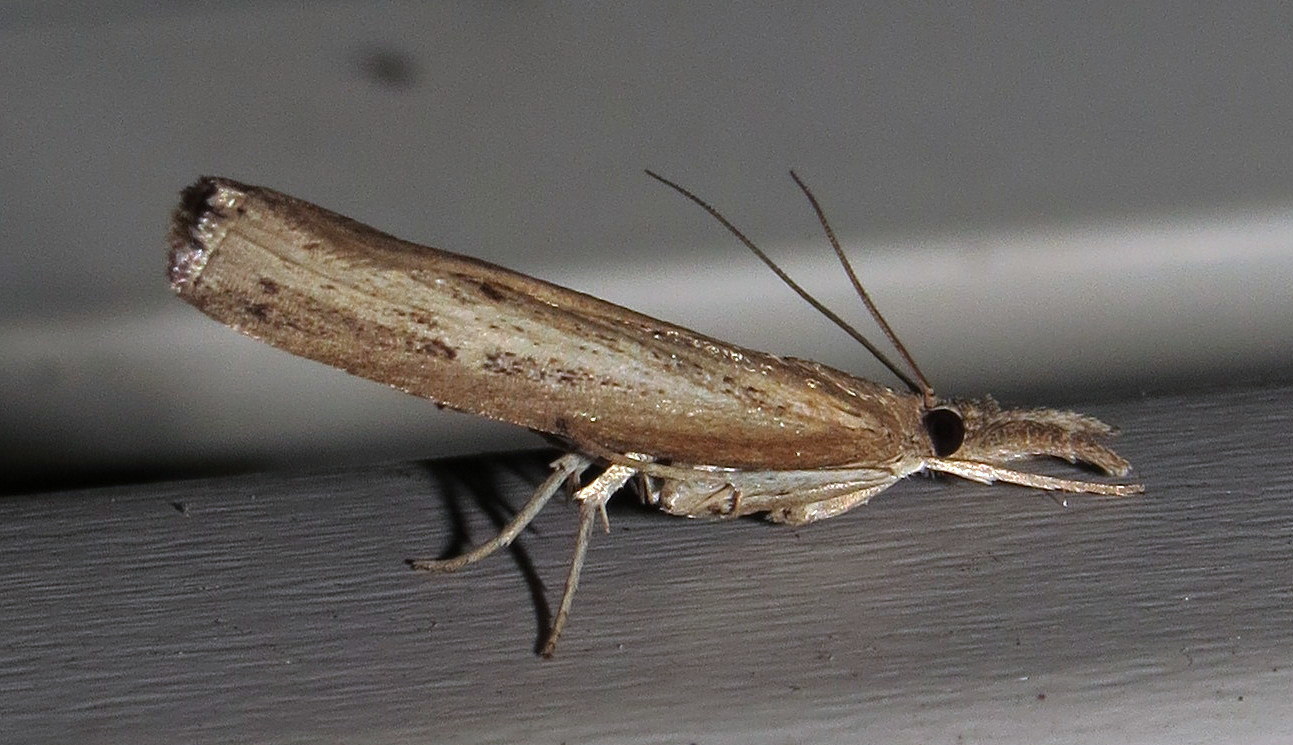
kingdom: Animalia
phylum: Arthropoda
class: Insecta
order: Lepidoptera
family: Crambidae
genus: Fissicrambus
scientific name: Fissicrambus mutabilis
